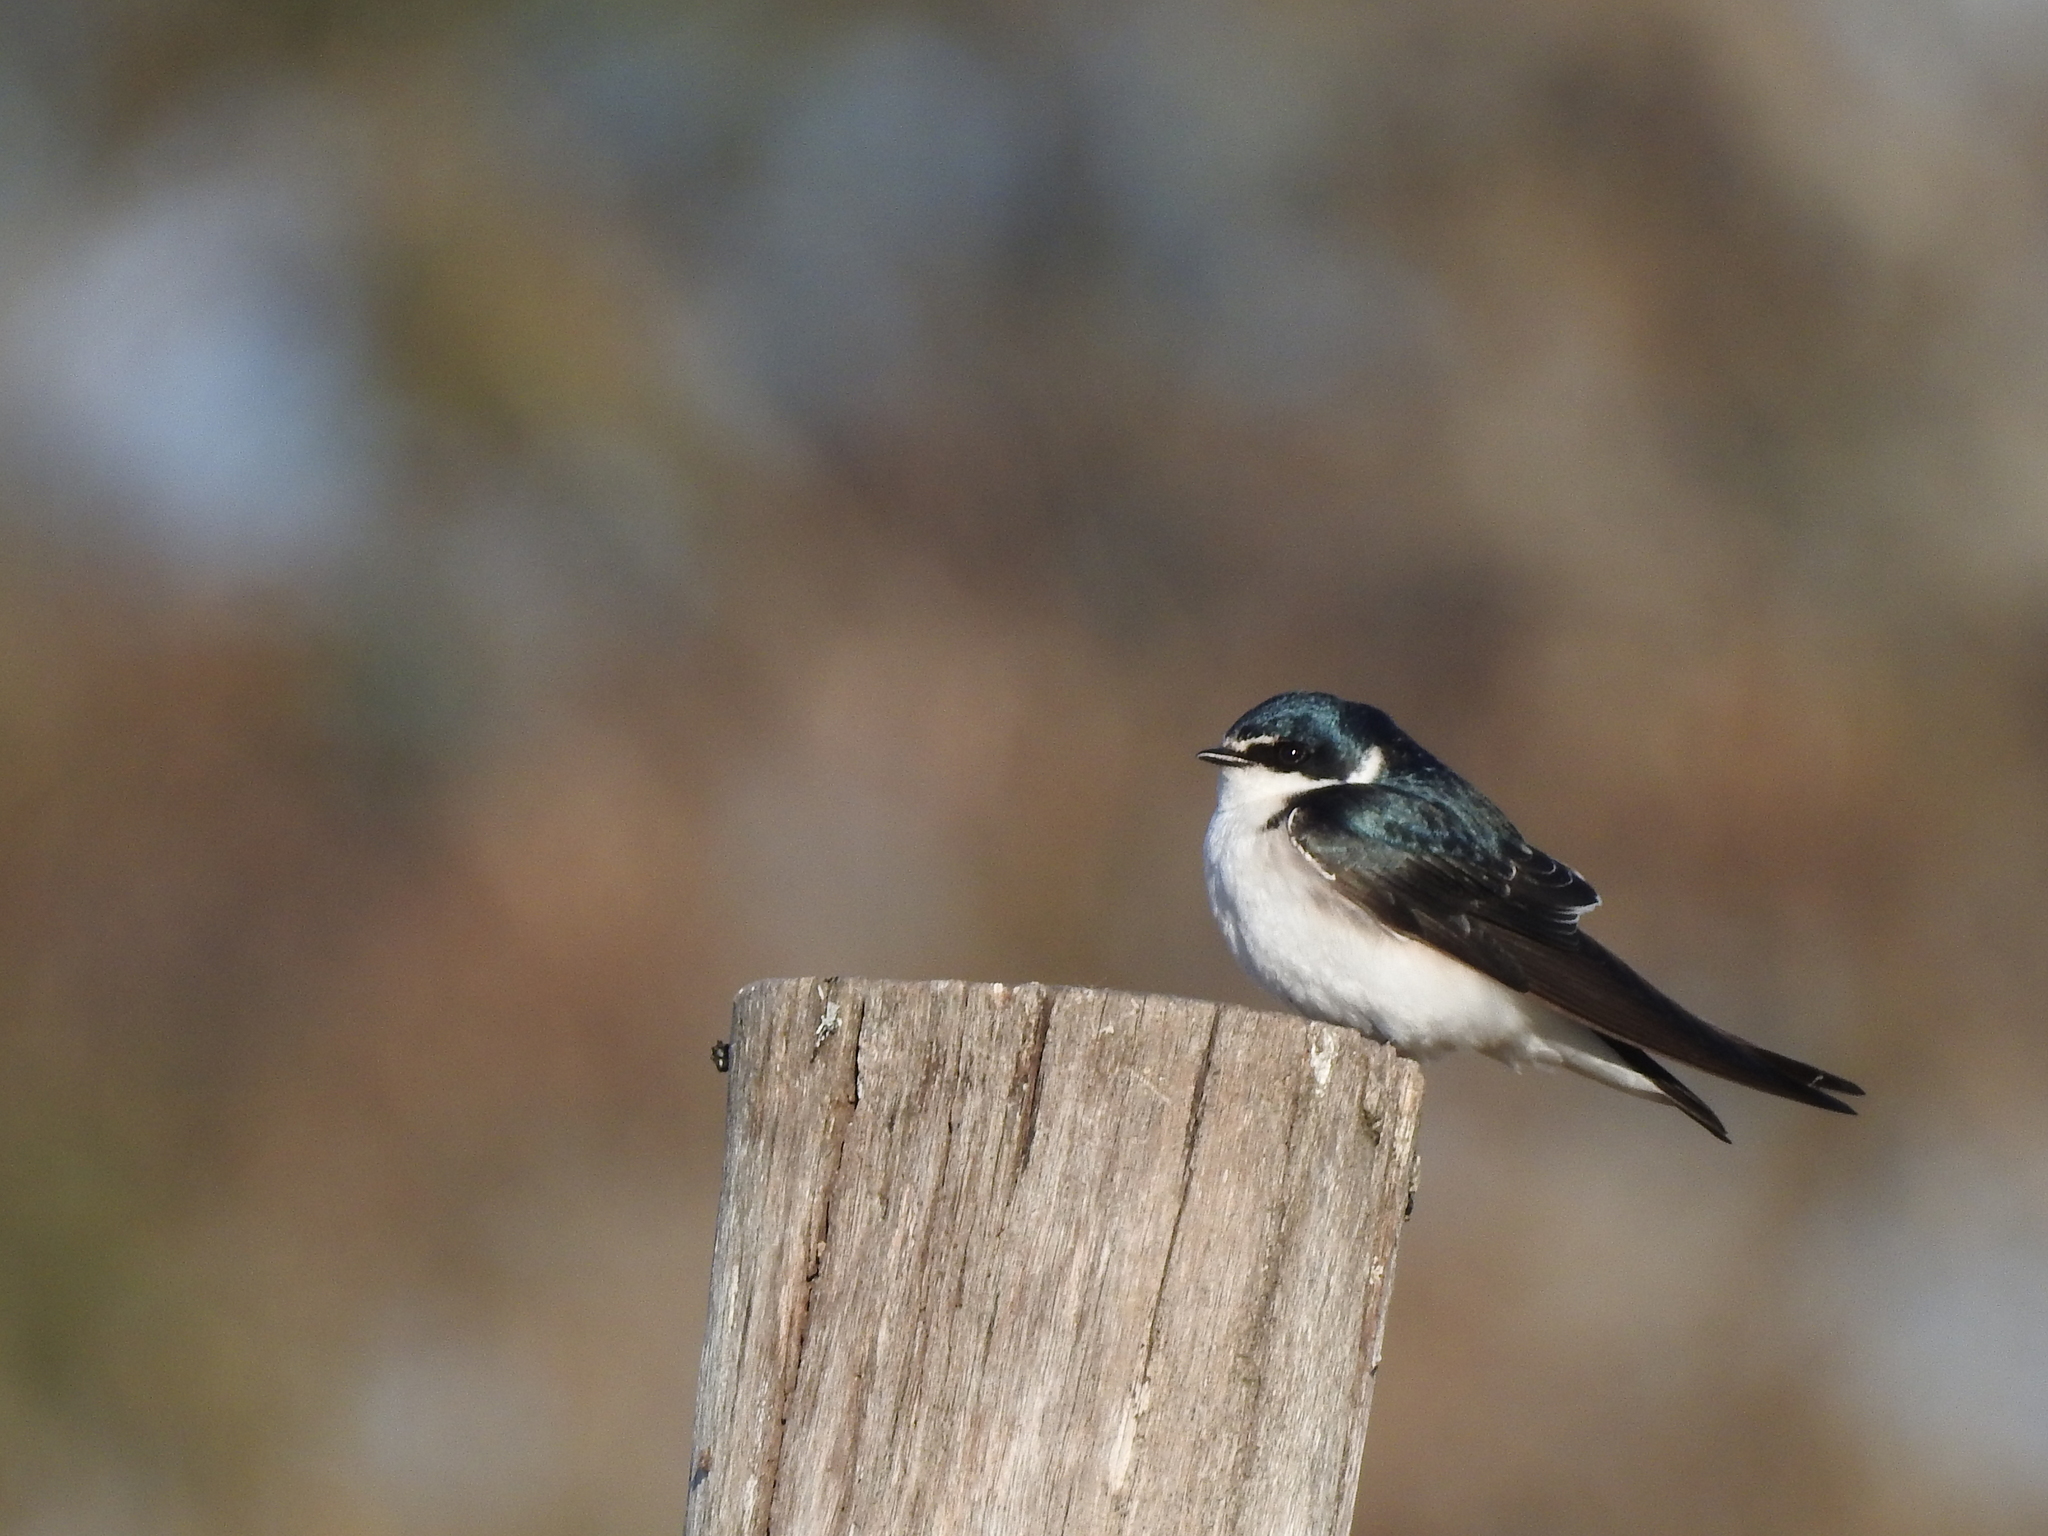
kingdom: Animalia
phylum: Chordata
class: Aves
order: Passeriformes
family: Hirundinidae
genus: Tachycineta
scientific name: Tachycineta leucorrhoa
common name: White-rumped swallow
